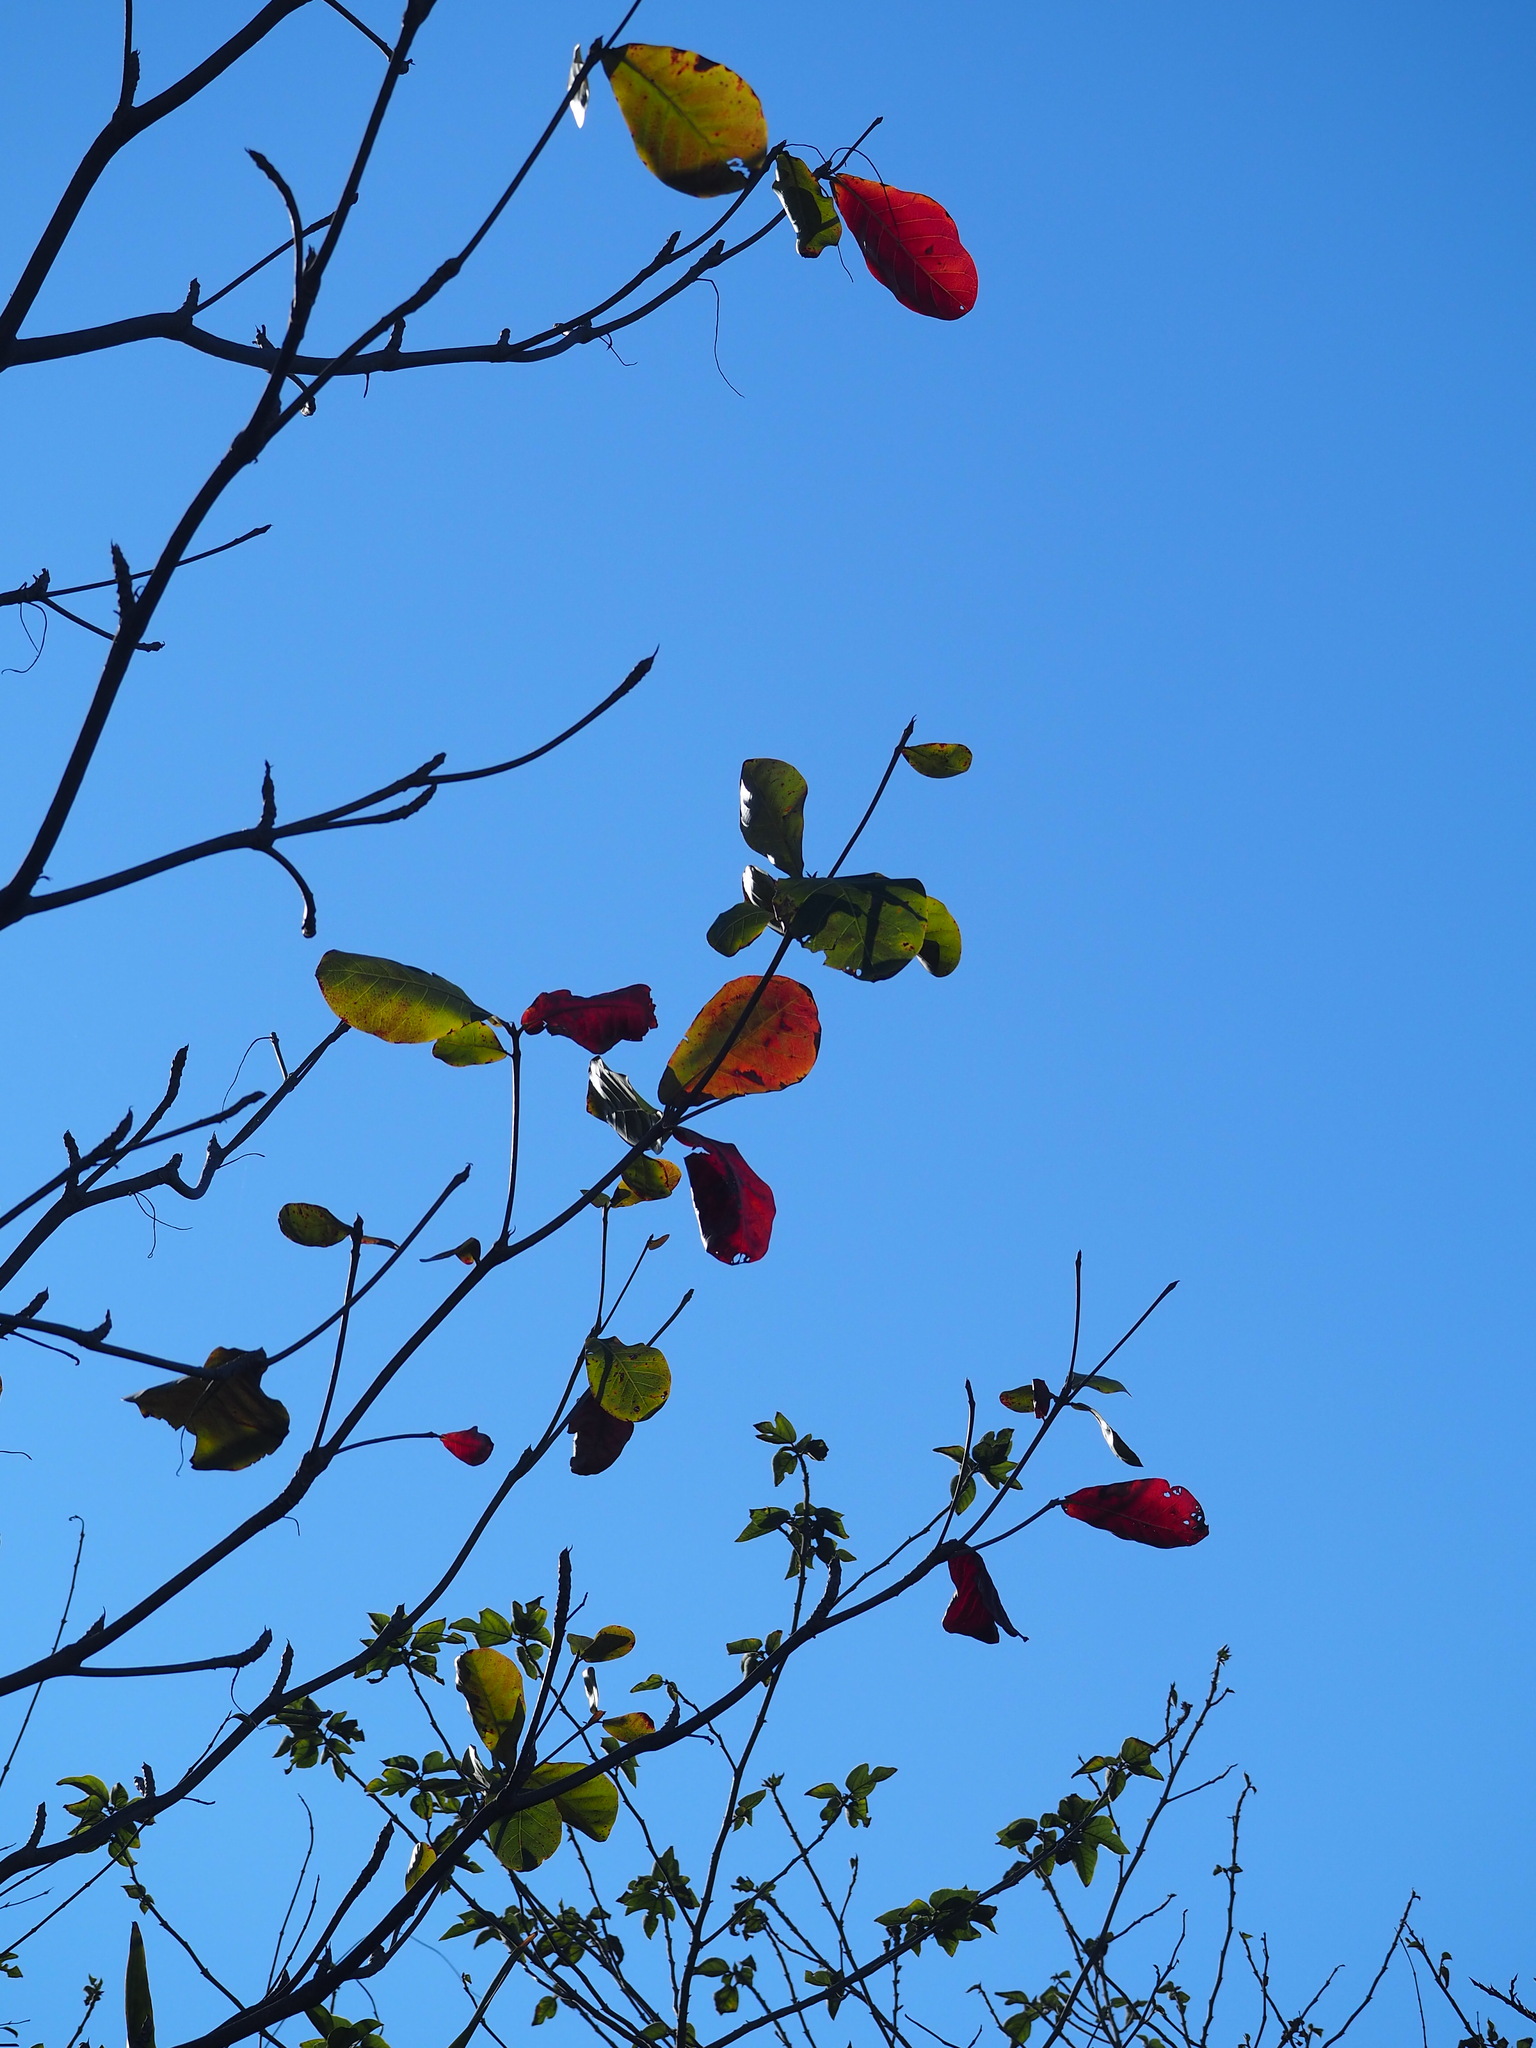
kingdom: Plantae
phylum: Tracheophyta
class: Magnoliopsida
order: Myrtales
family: Combretaceae
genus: Terminalia
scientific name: Terminalia catappa
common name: Tropical almond
